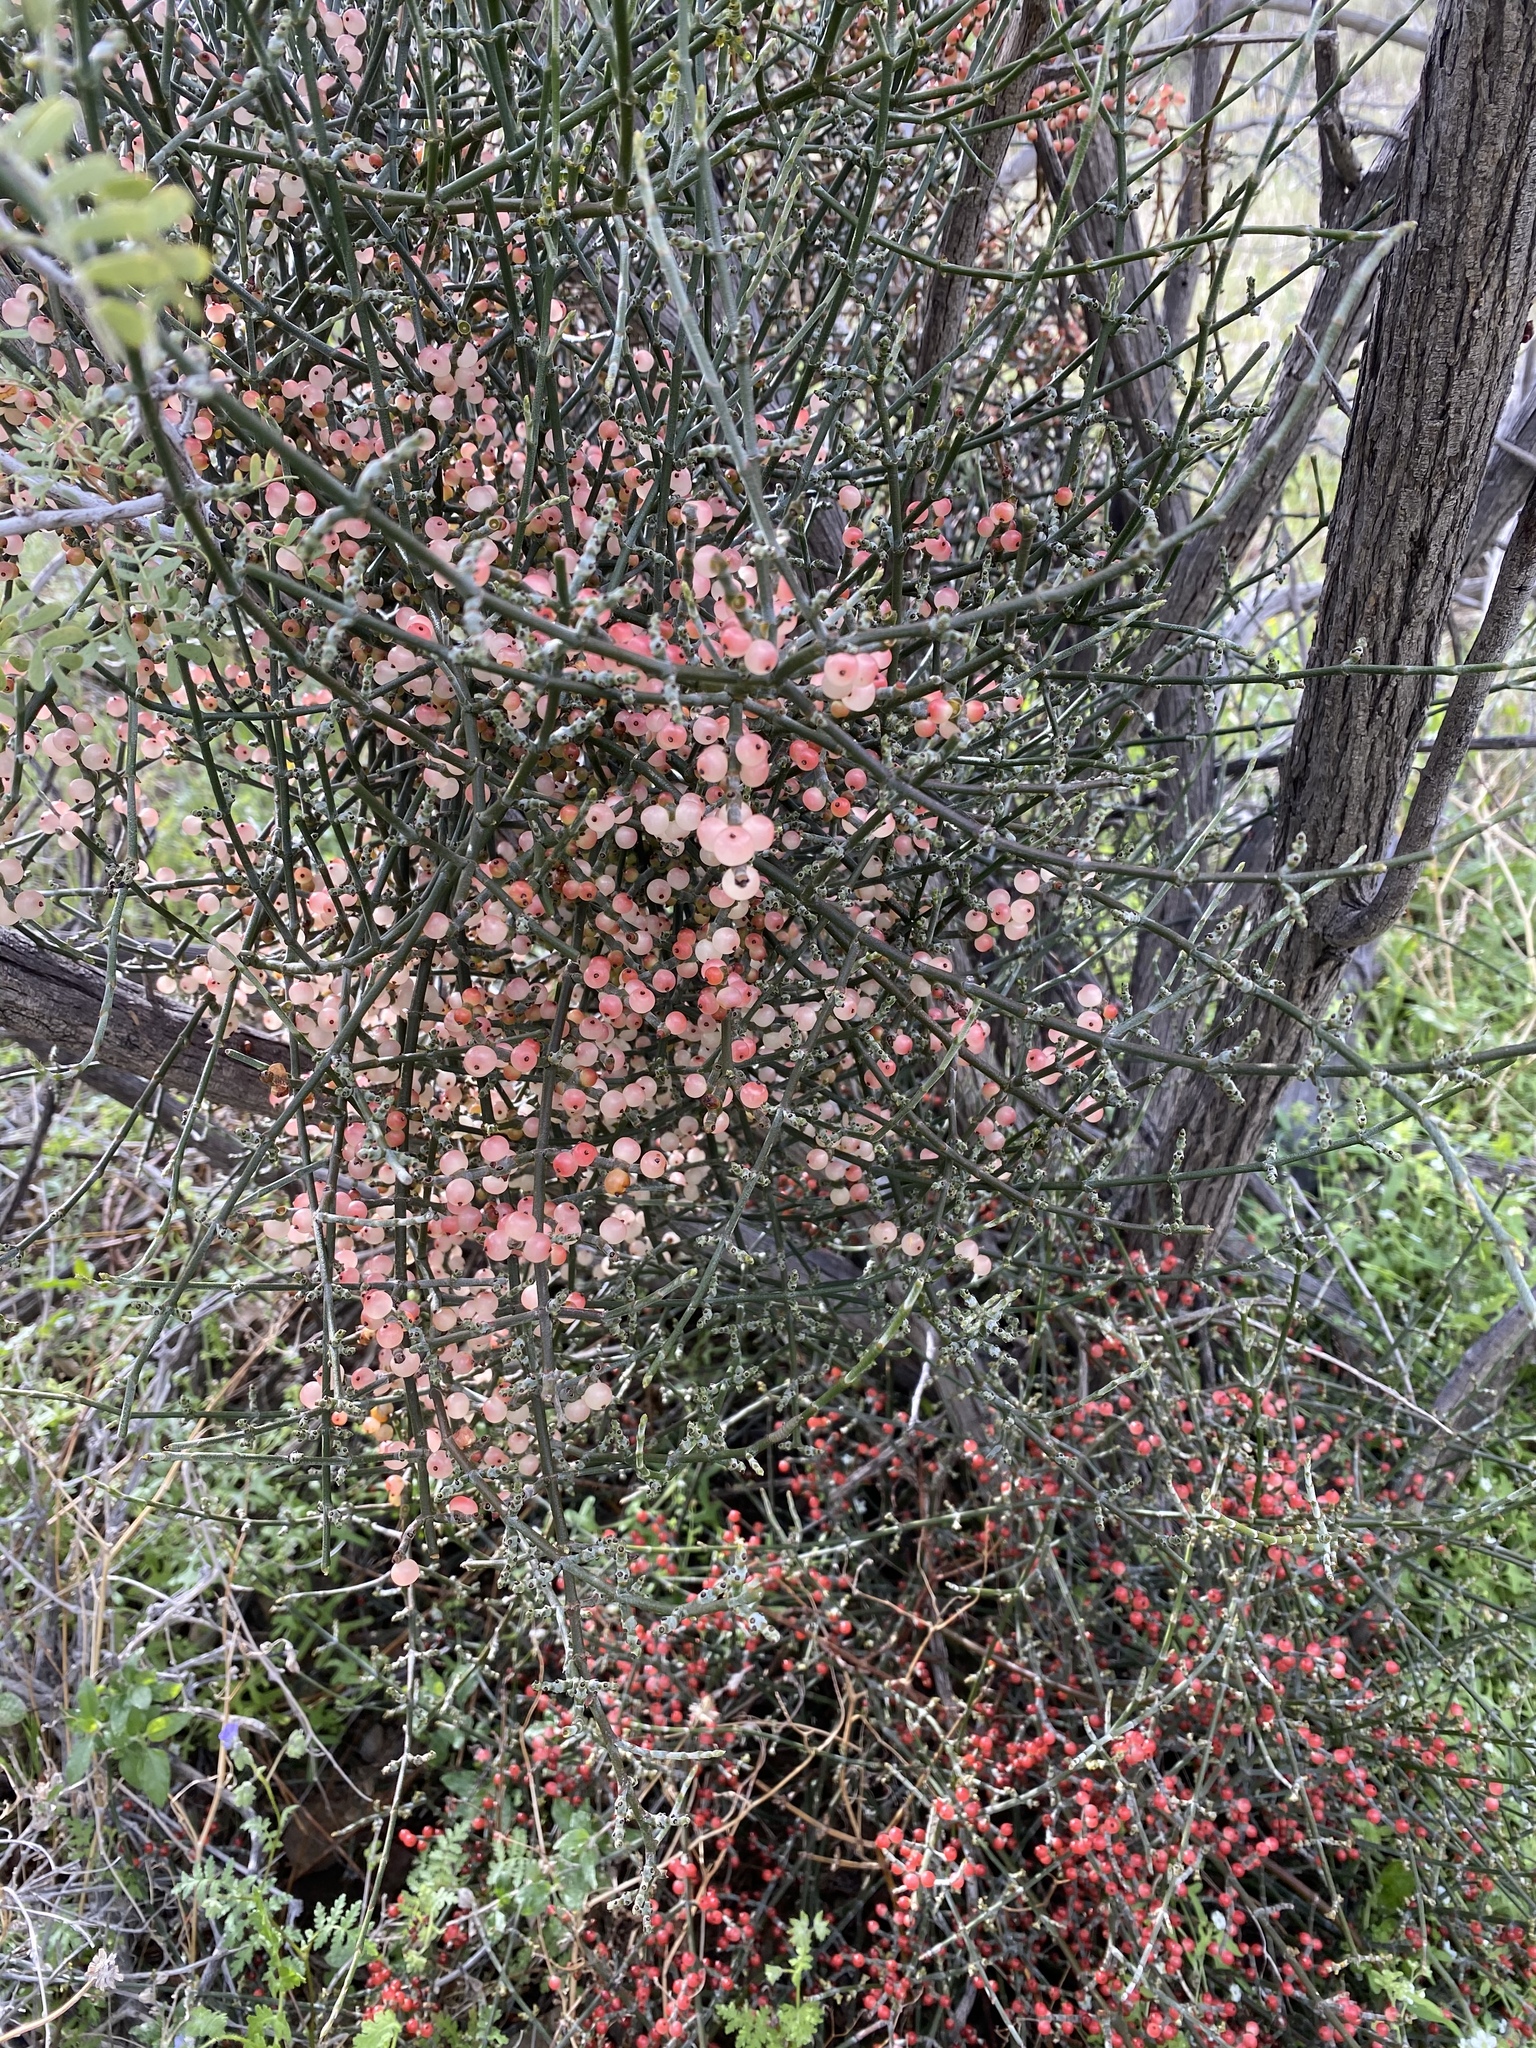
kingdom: Plantae
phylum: Tracheophyta
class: Magnoliopsida
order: Santalales
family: Viscaceae
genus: Phoradendron
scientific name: Phoradendron californicum
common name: Acacia mistletoe
